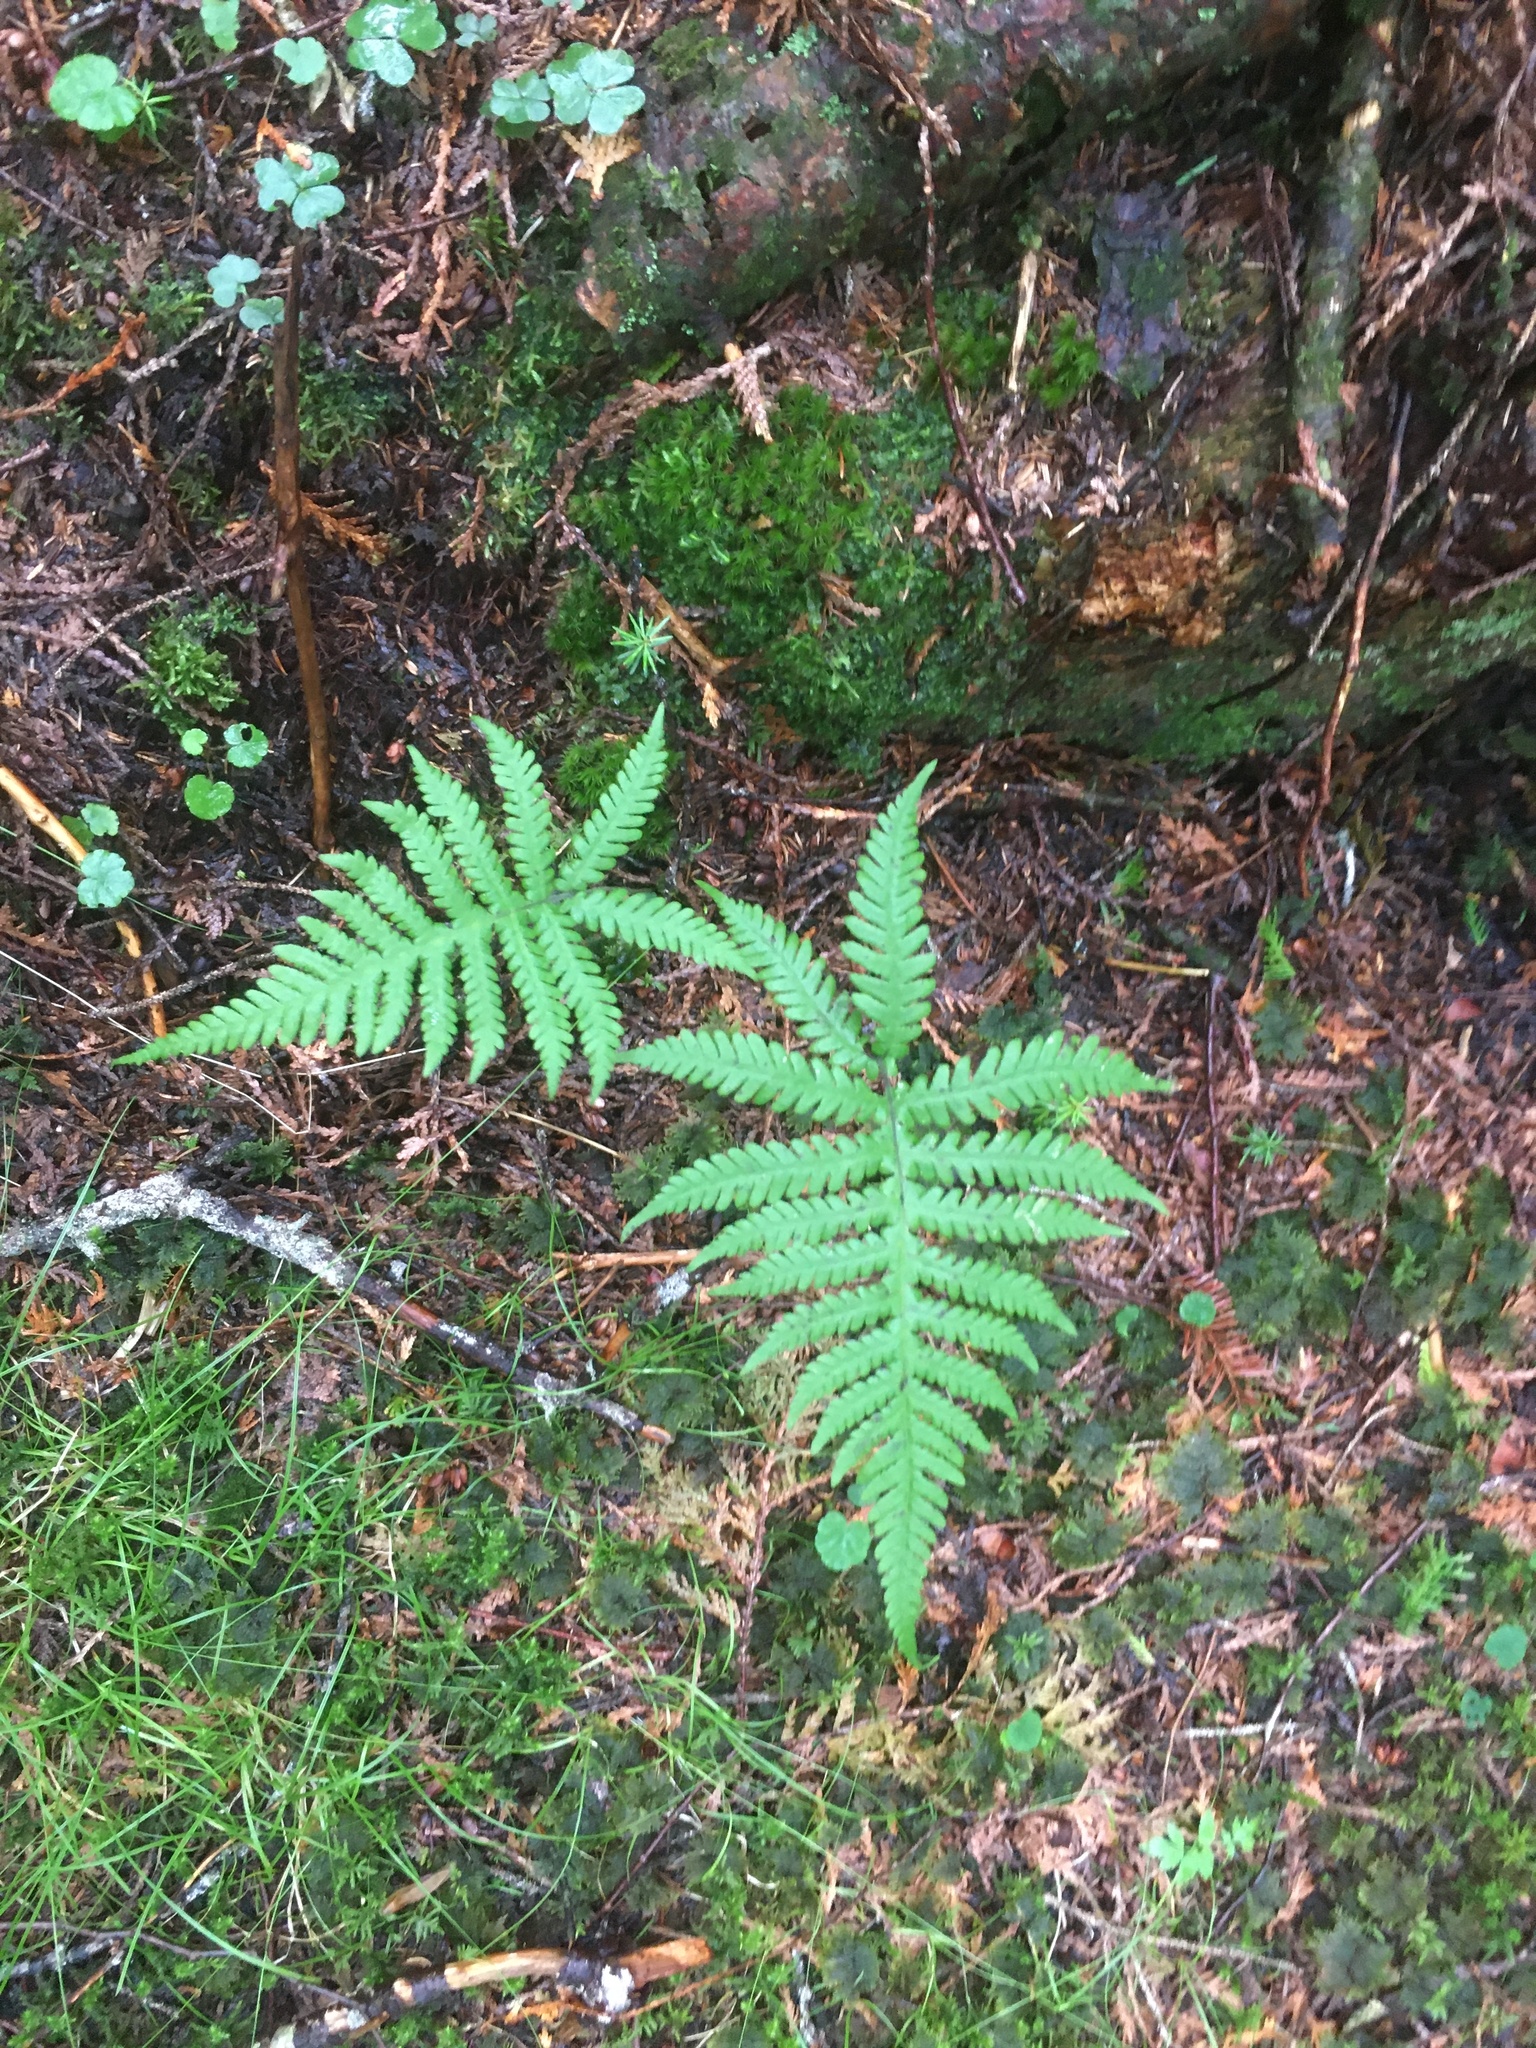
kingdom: Plantae
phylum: Tracheophyta
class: Polypodiopsida
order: Polypodiales
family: Thelypteridaceae
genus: Phegopteris
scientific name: Phegopteris connectilis
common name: Beech fern
